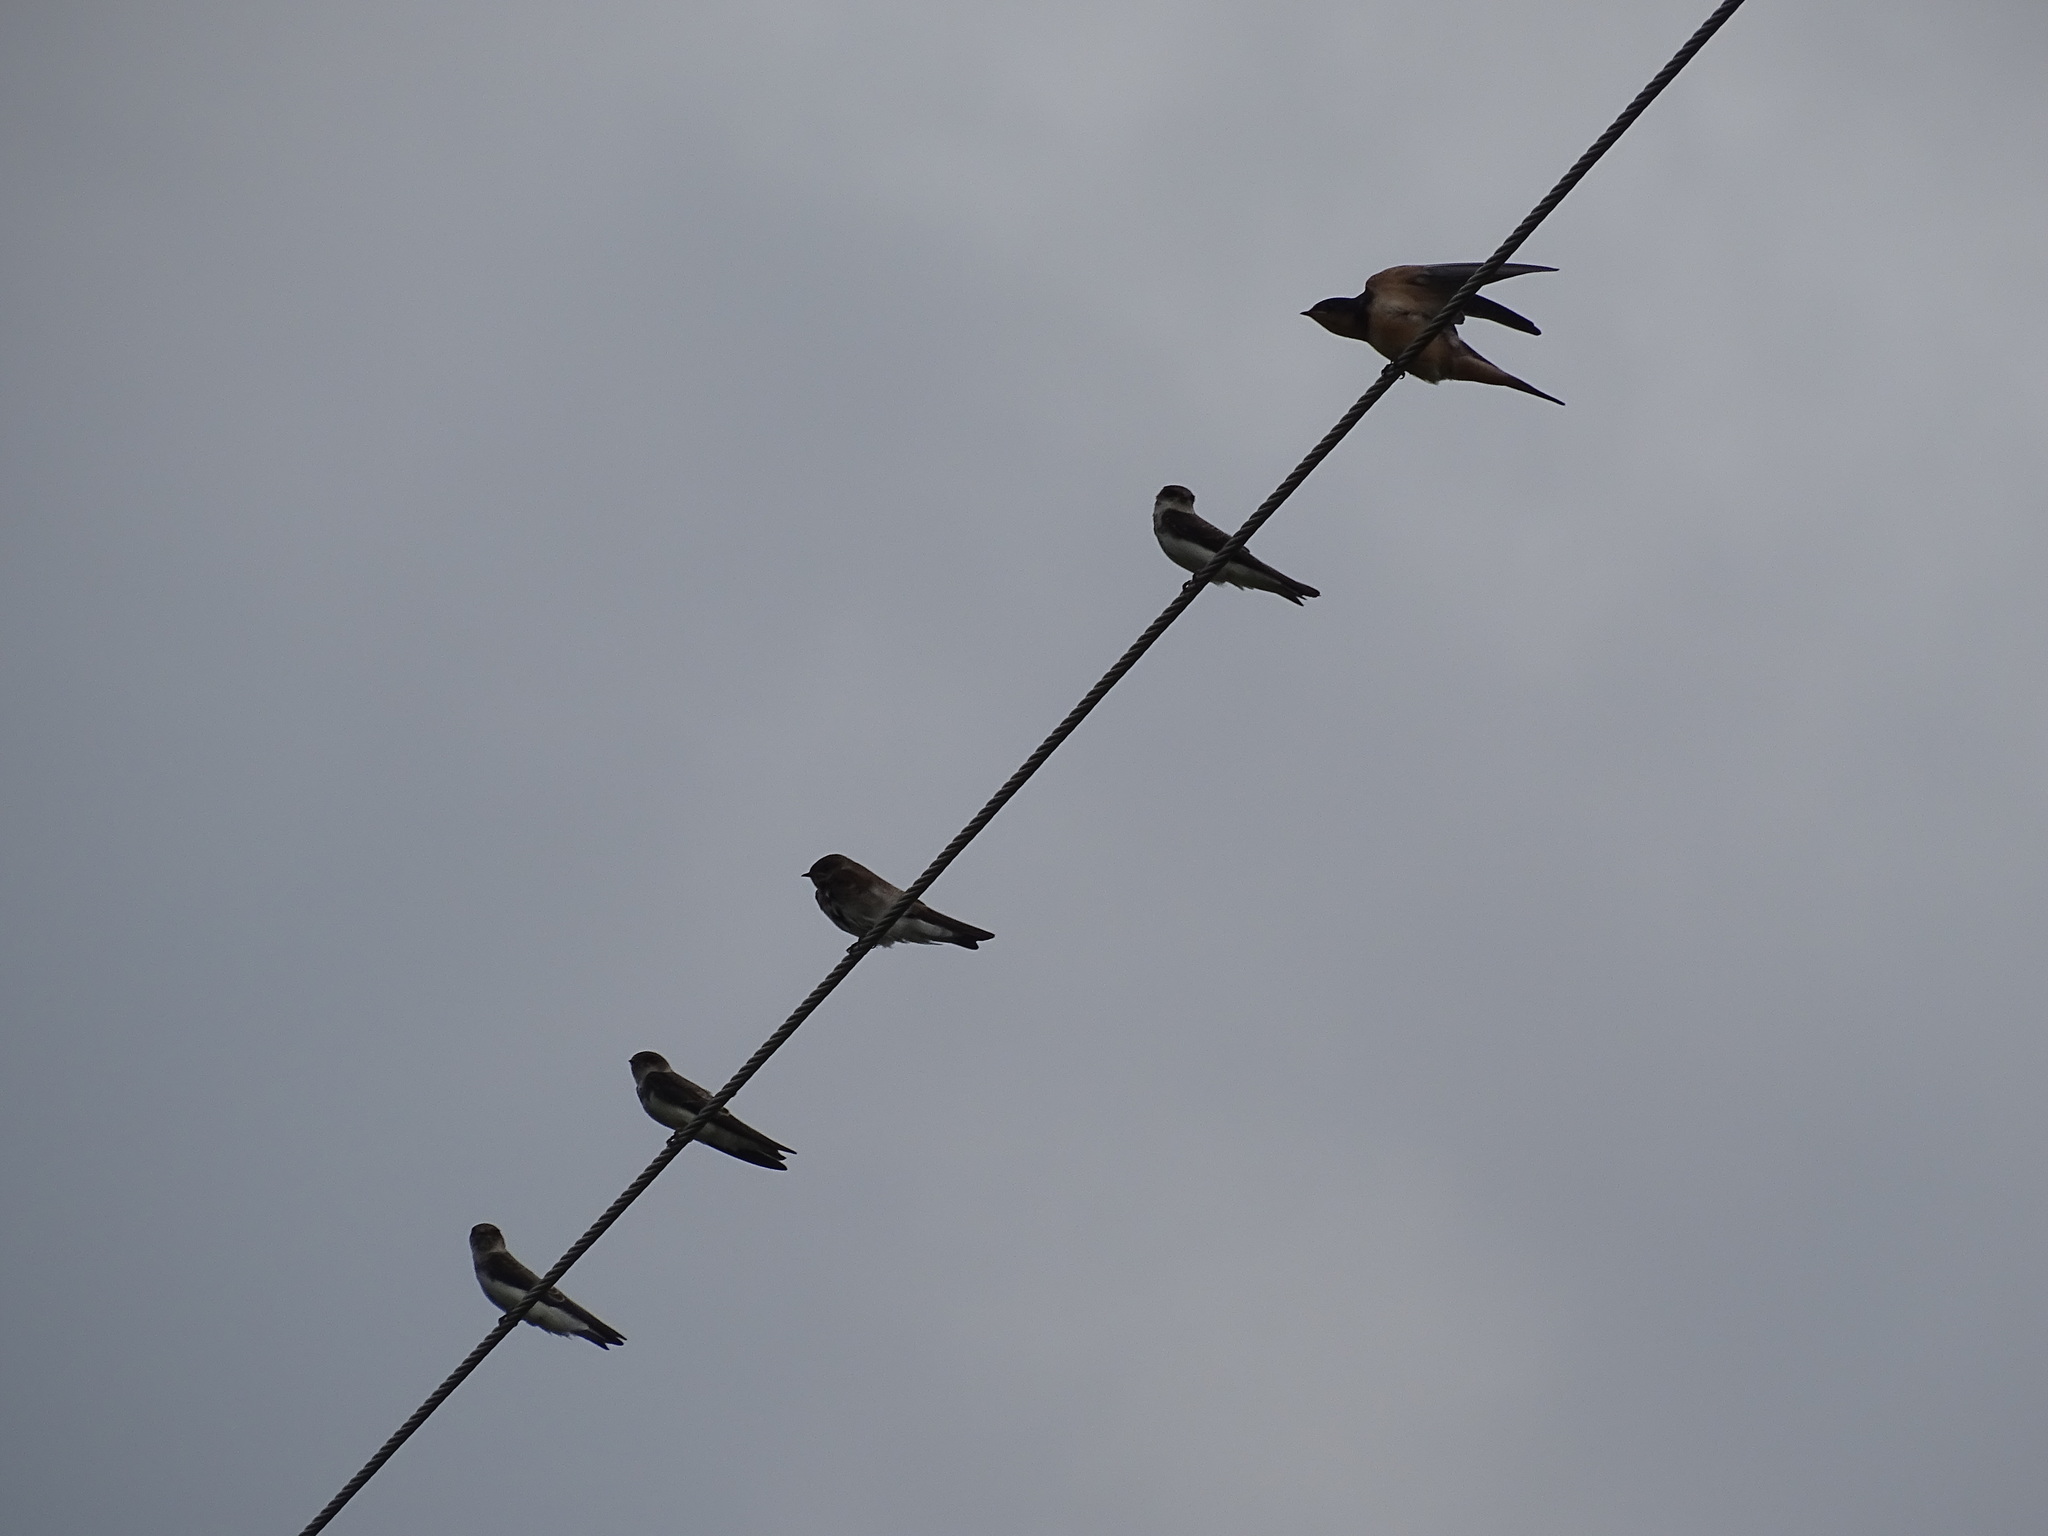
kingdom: Animalia
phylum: Chordata
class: Aves
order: Passeriformes
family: Hirundinidae
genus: Stelgidopteryx
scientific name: Stelgidopteryx serripennis
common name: Northern rough-winged swallow
